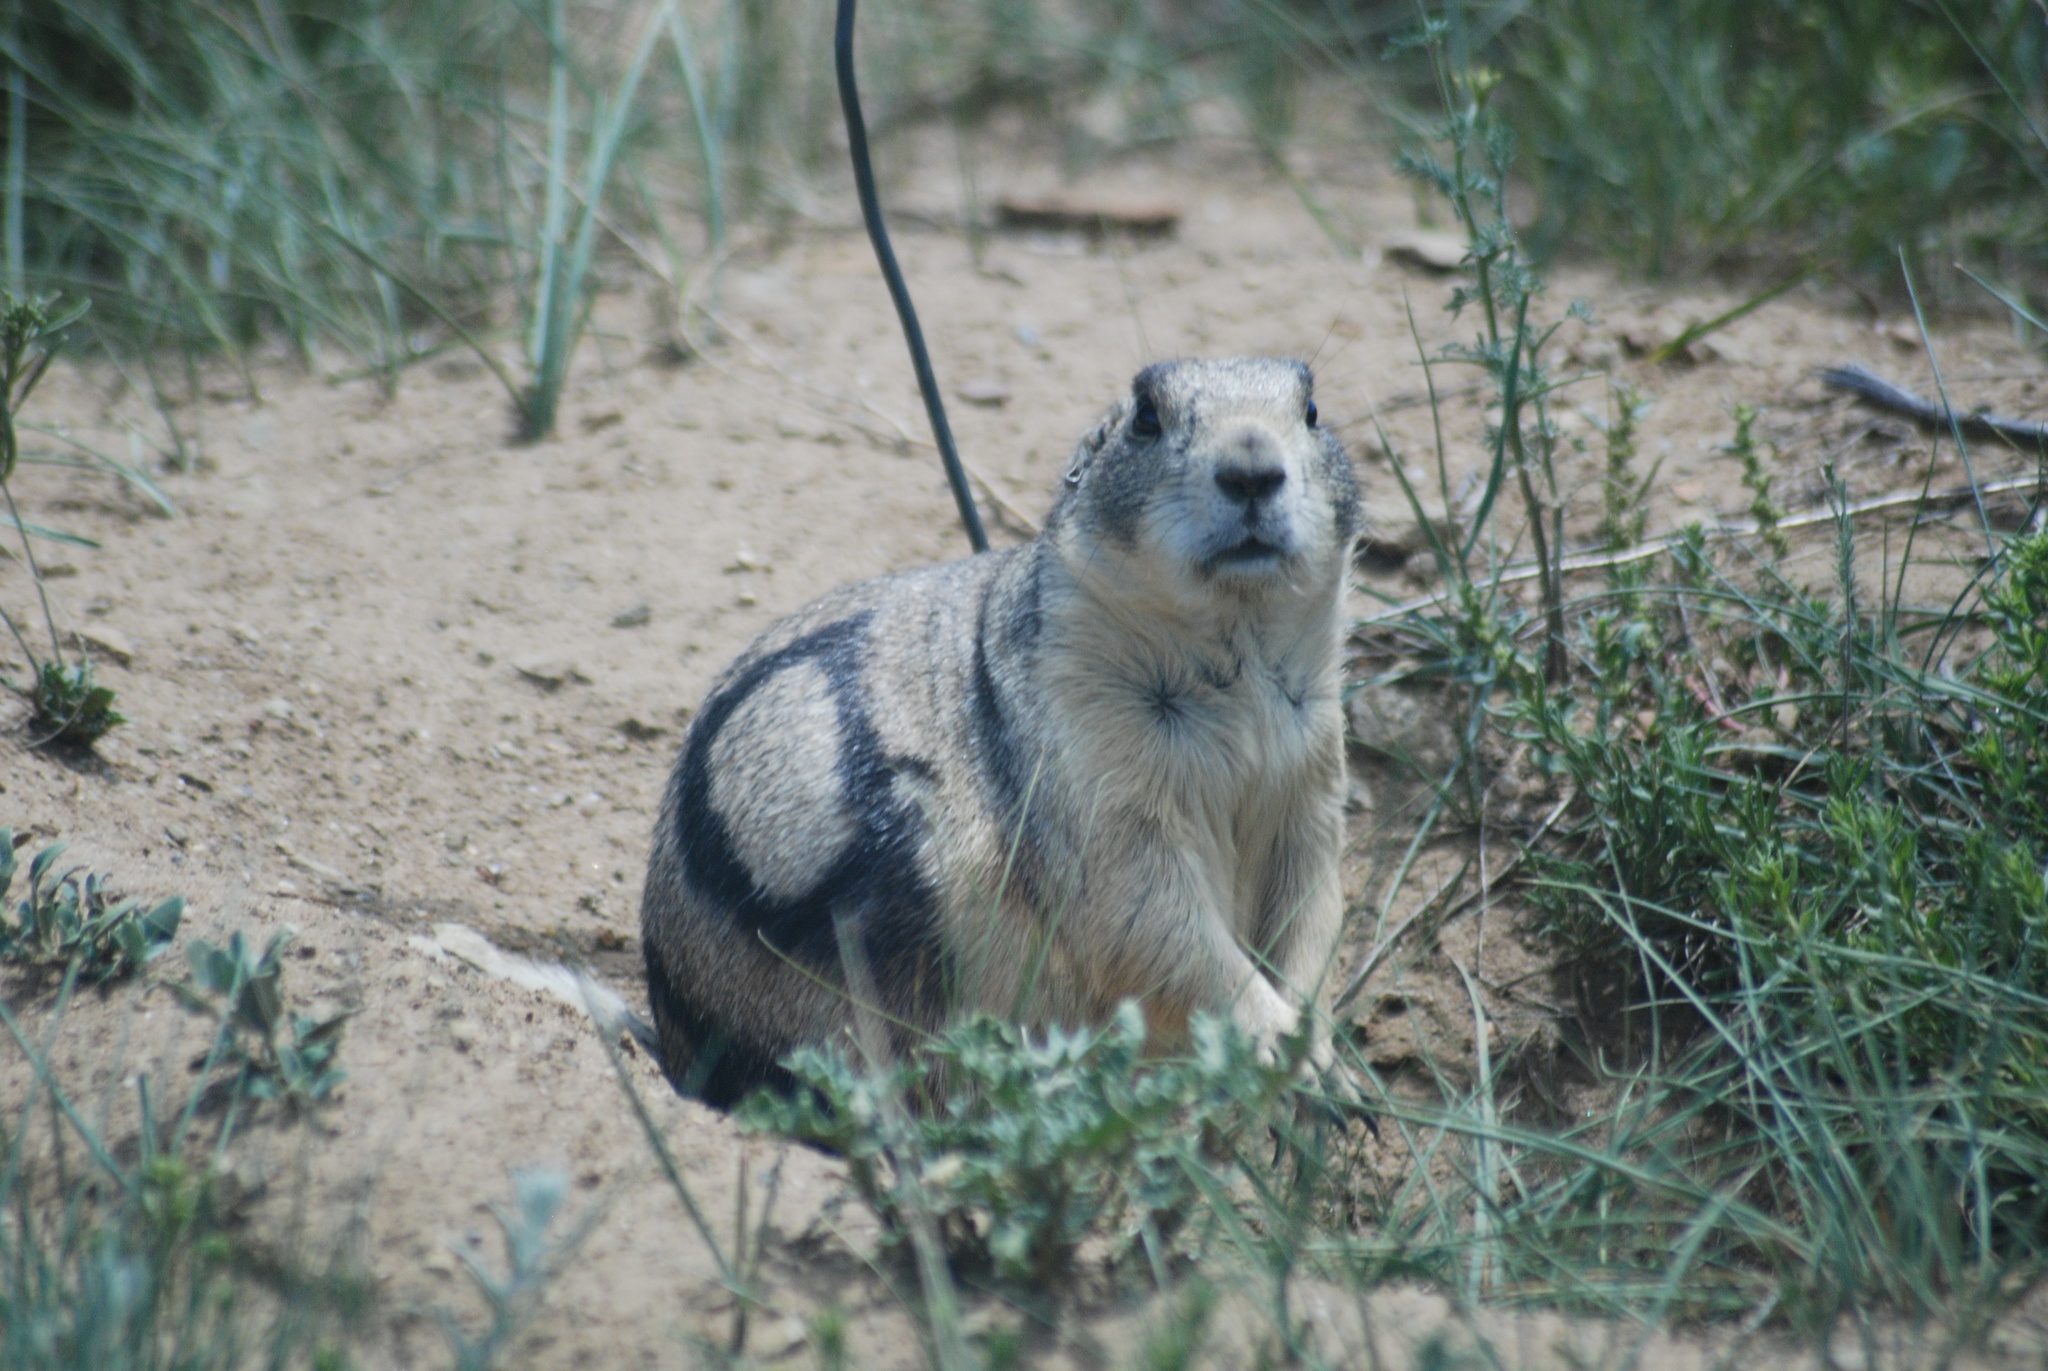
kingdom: Animalia
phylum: Chordata
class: Mammalia
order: Rodentia
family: Sciuridae
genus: Cynomys
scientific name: Cynomys leucurus
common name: White-tailed prairie dog
